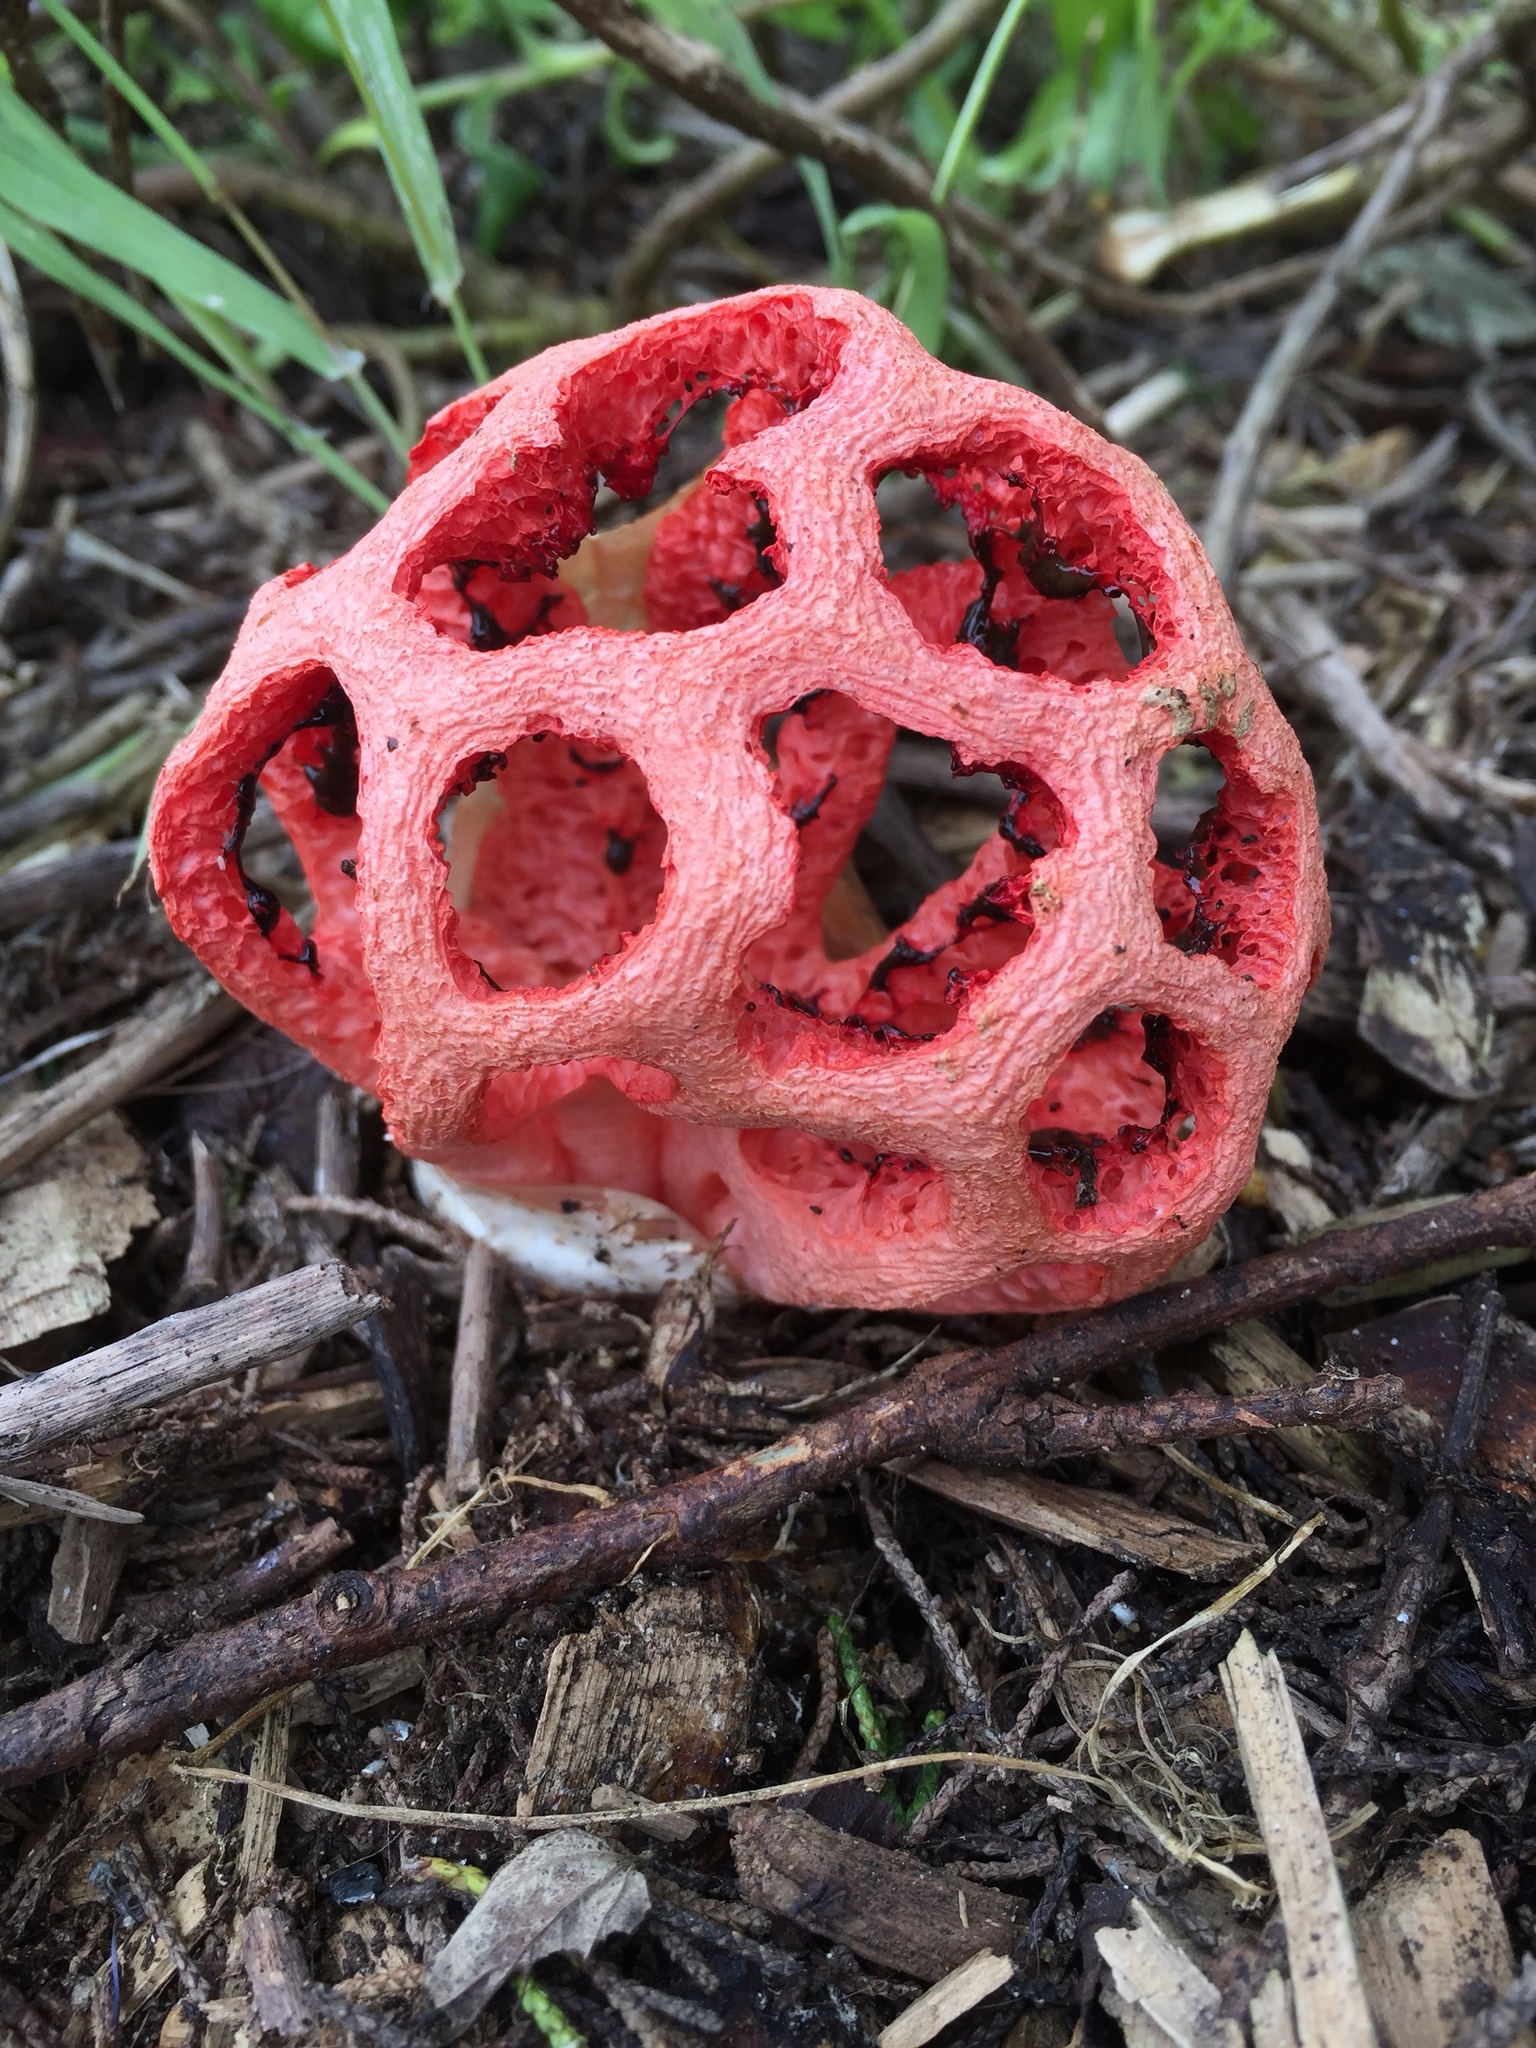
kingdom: Fungi
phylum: Basidiomycota
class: Agaricomycetes
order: Phallales
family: Phallaceae
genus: Clathrus
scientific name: Clathrus ruber
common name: Red cage
